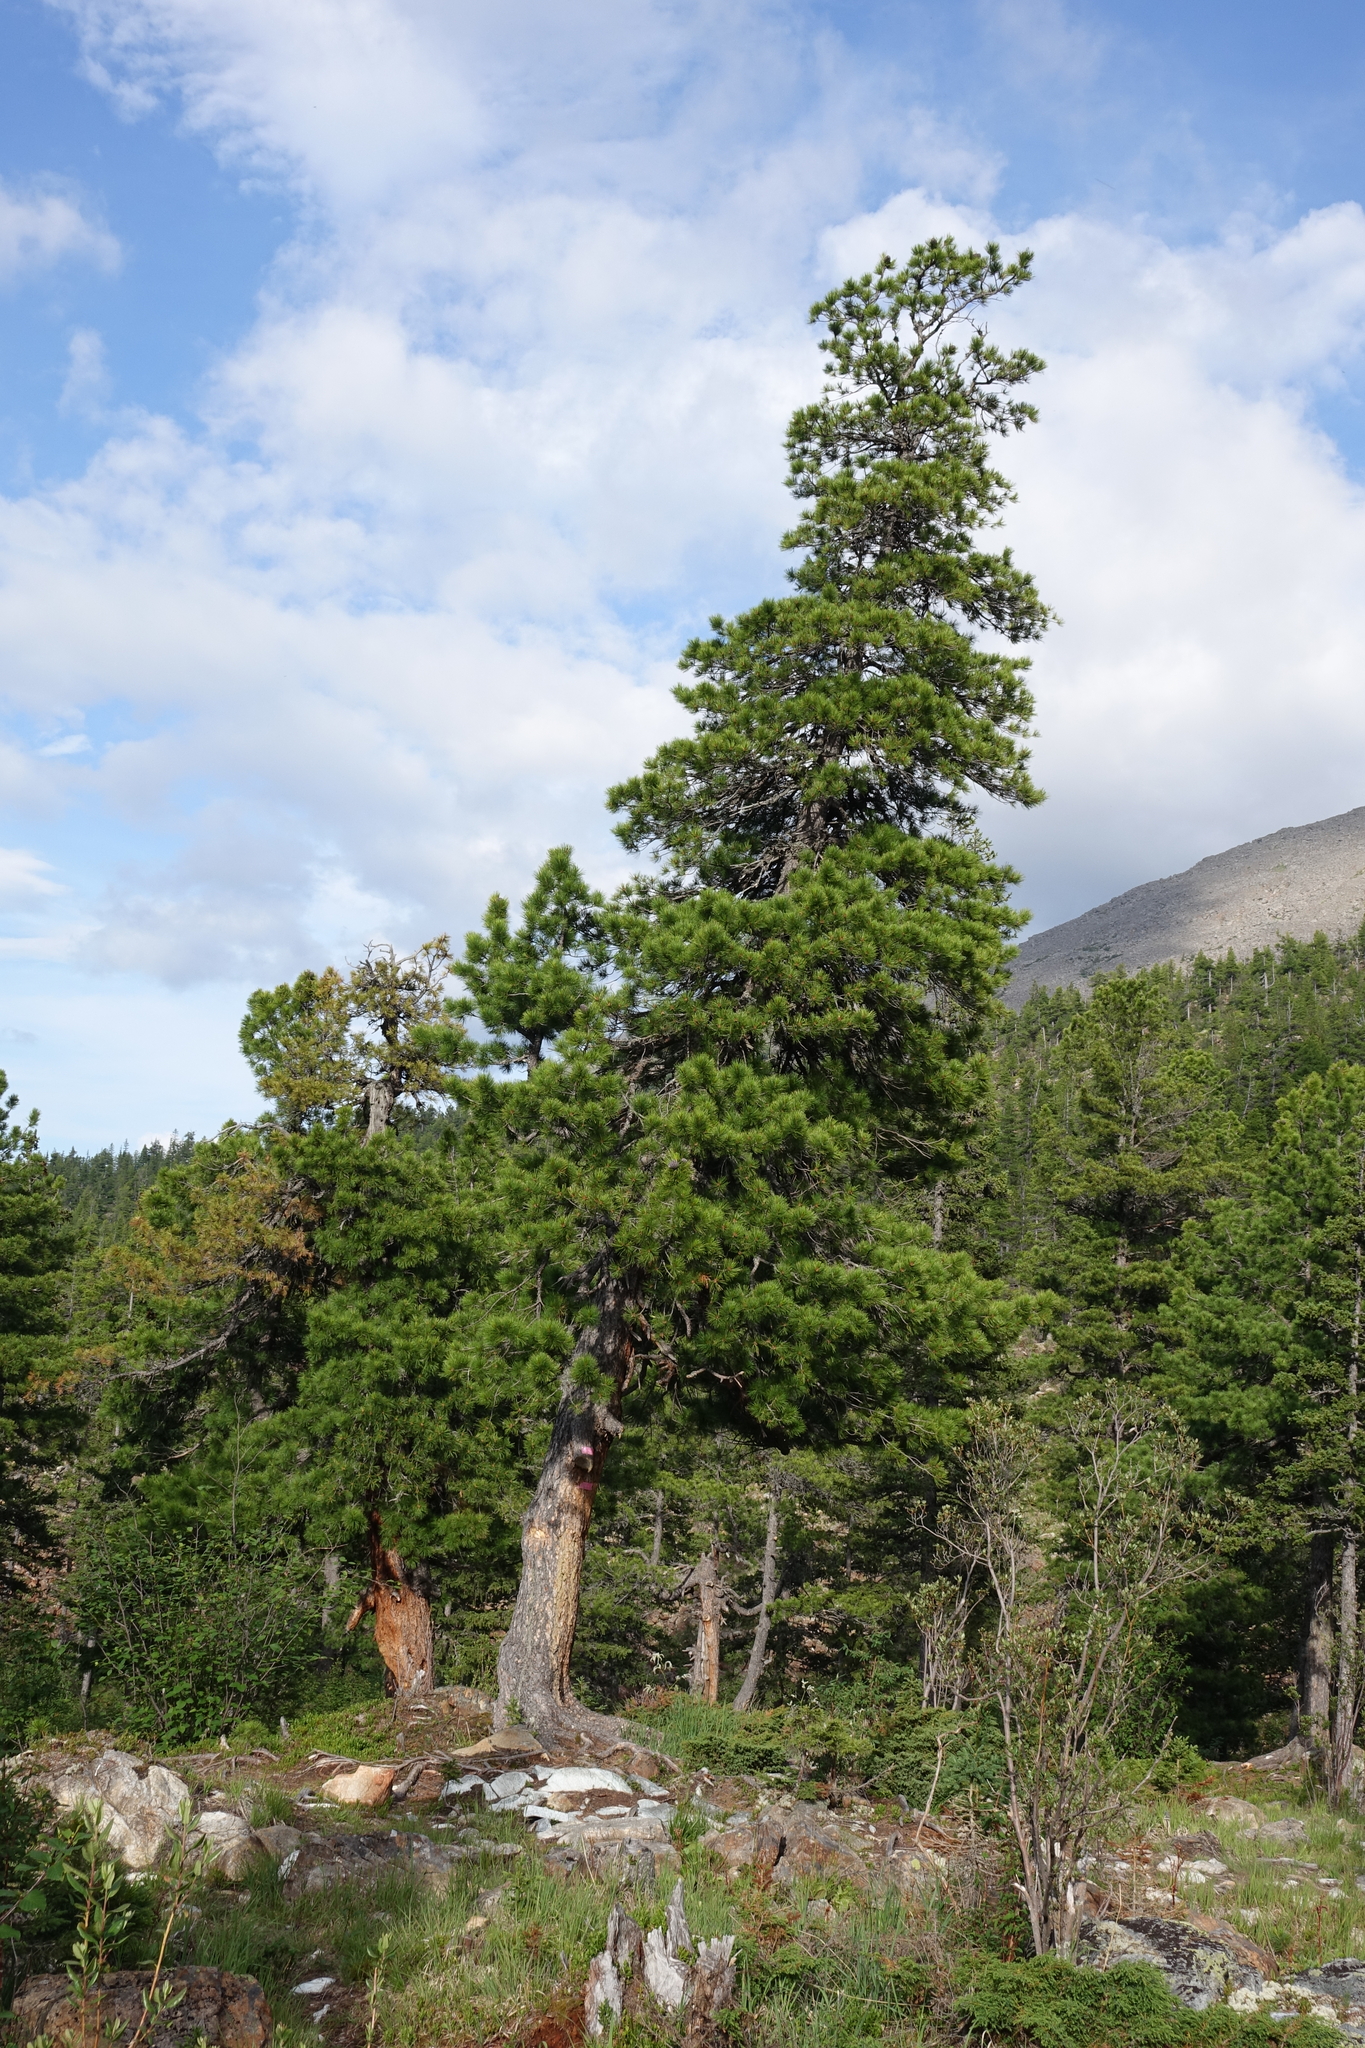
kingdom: Plantae
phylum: Tracheophyta
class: Pinopsida
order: Pinales
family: Pinaceae
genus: Pinus
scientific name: Pinus sibirica
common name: Siberian pine
